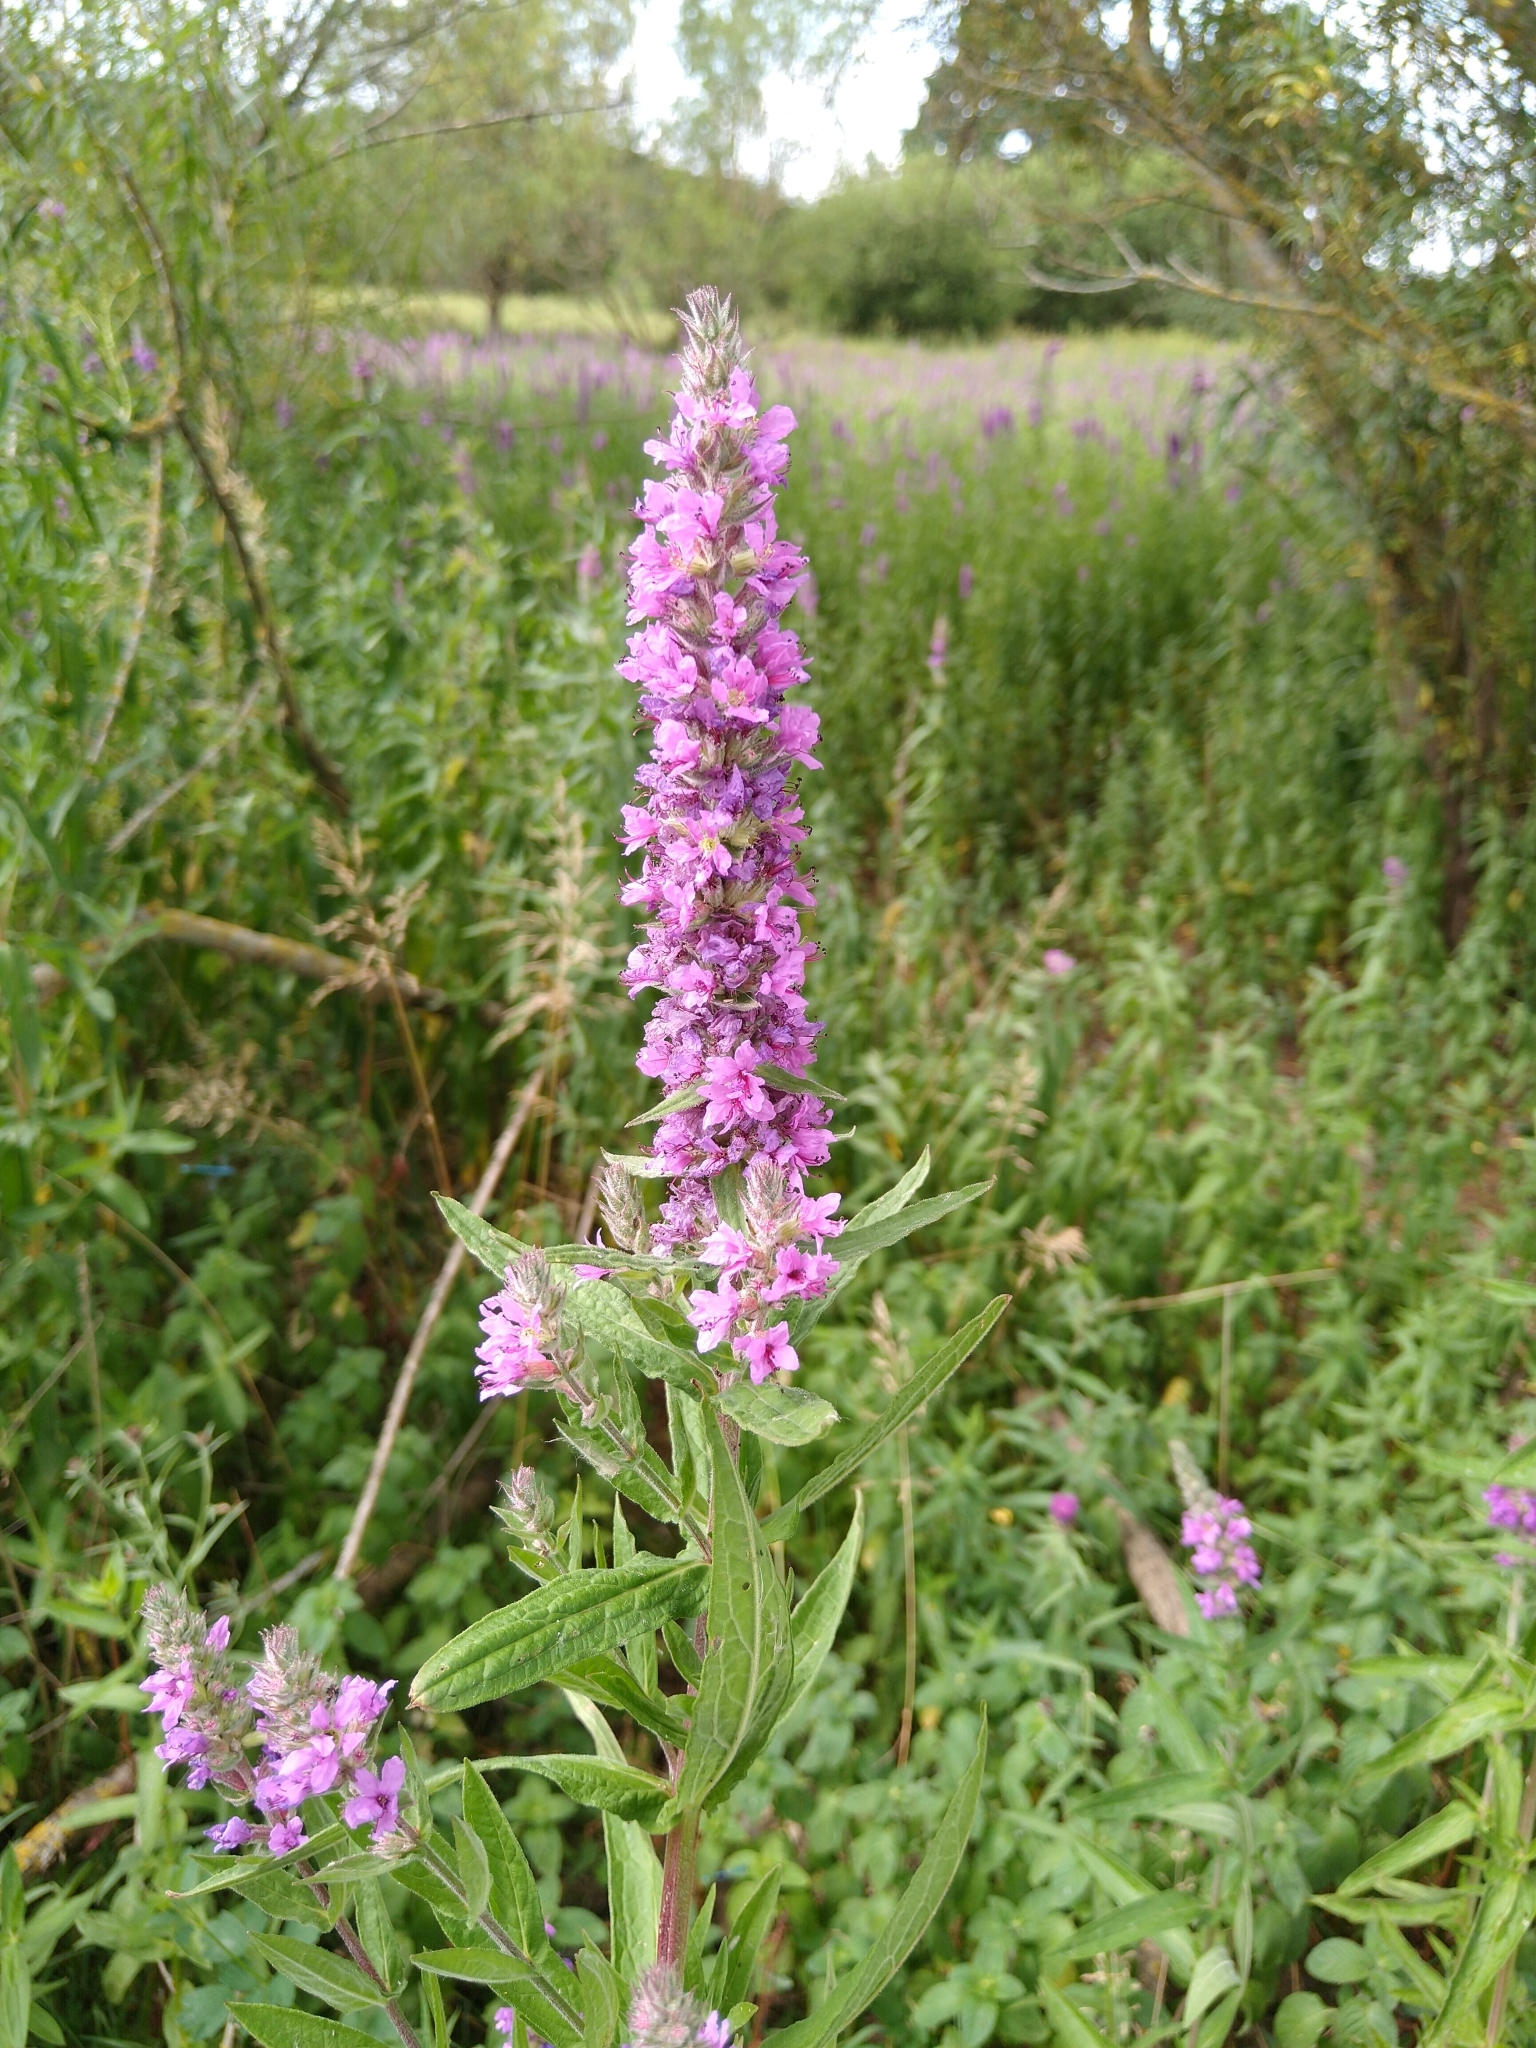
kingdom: Plantae
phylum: Tracheophyta
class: Magnoliopsida
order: Myrtales
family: Lythraceae
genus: Lythrum
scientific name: Lythrum salicaria
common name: Purple loosestrife
